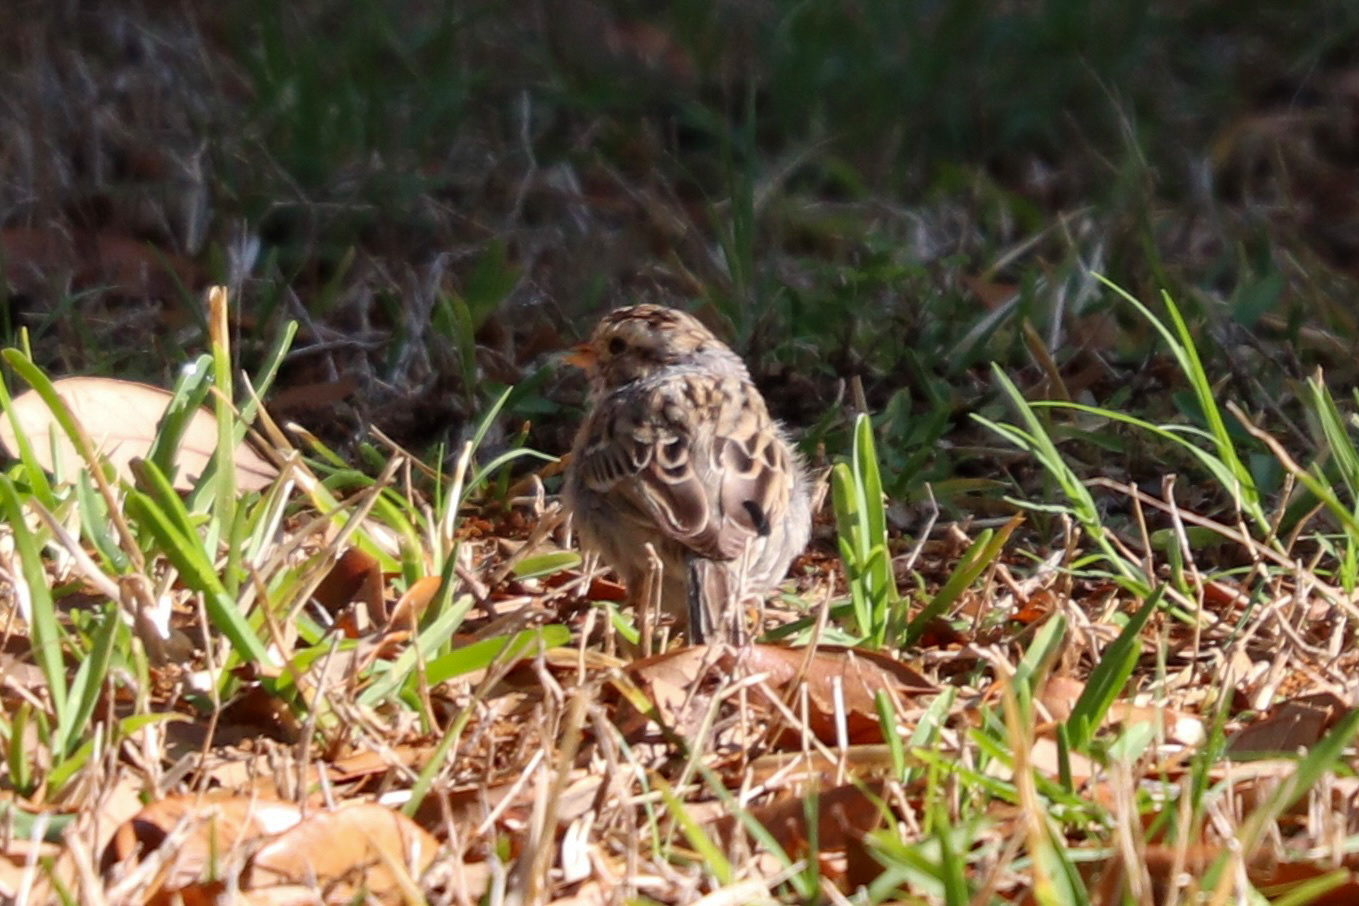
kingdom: Animalia
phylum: Chordata
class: Aves
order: Passeriformes
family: Passerellidae
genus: Spizella
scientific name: Spizella pallida
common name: Clay-colored sparrow
